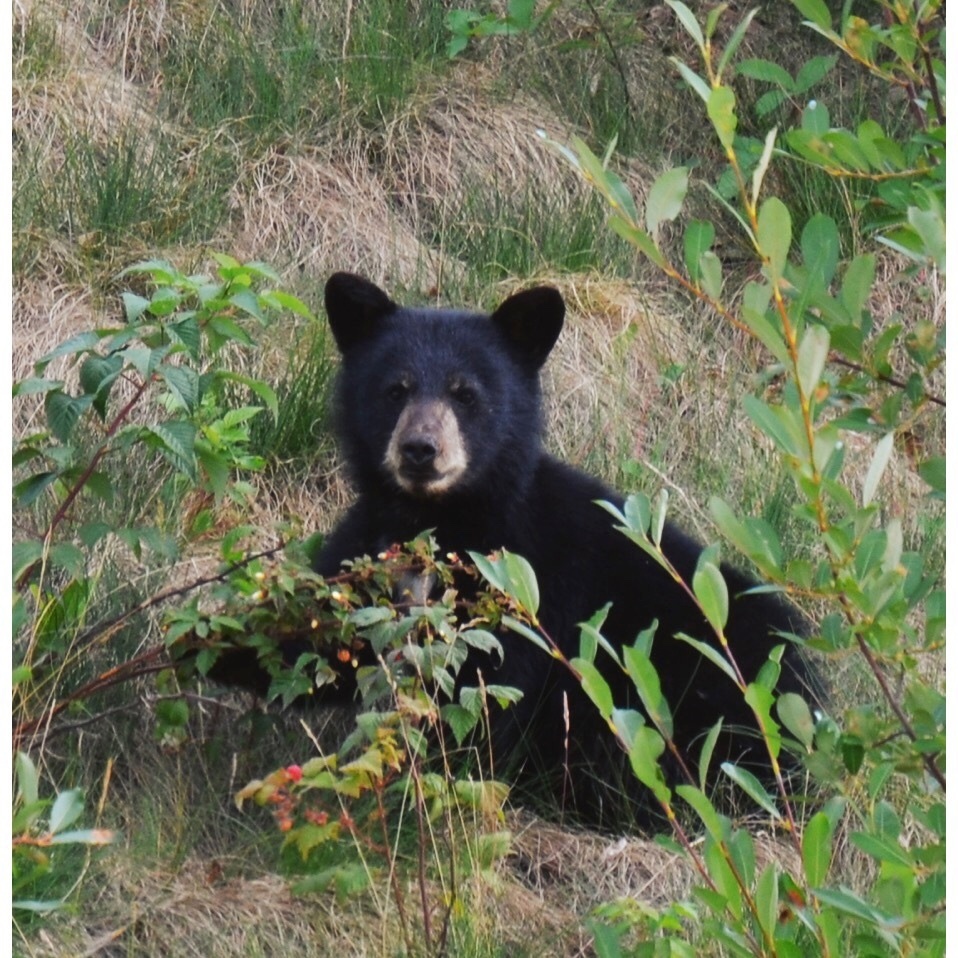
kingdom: Animalia
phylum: Chordata
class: Mammalia
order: Carnivora
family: Ursidae
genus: Ursus
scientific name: Ursus americanus
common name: American black bear
